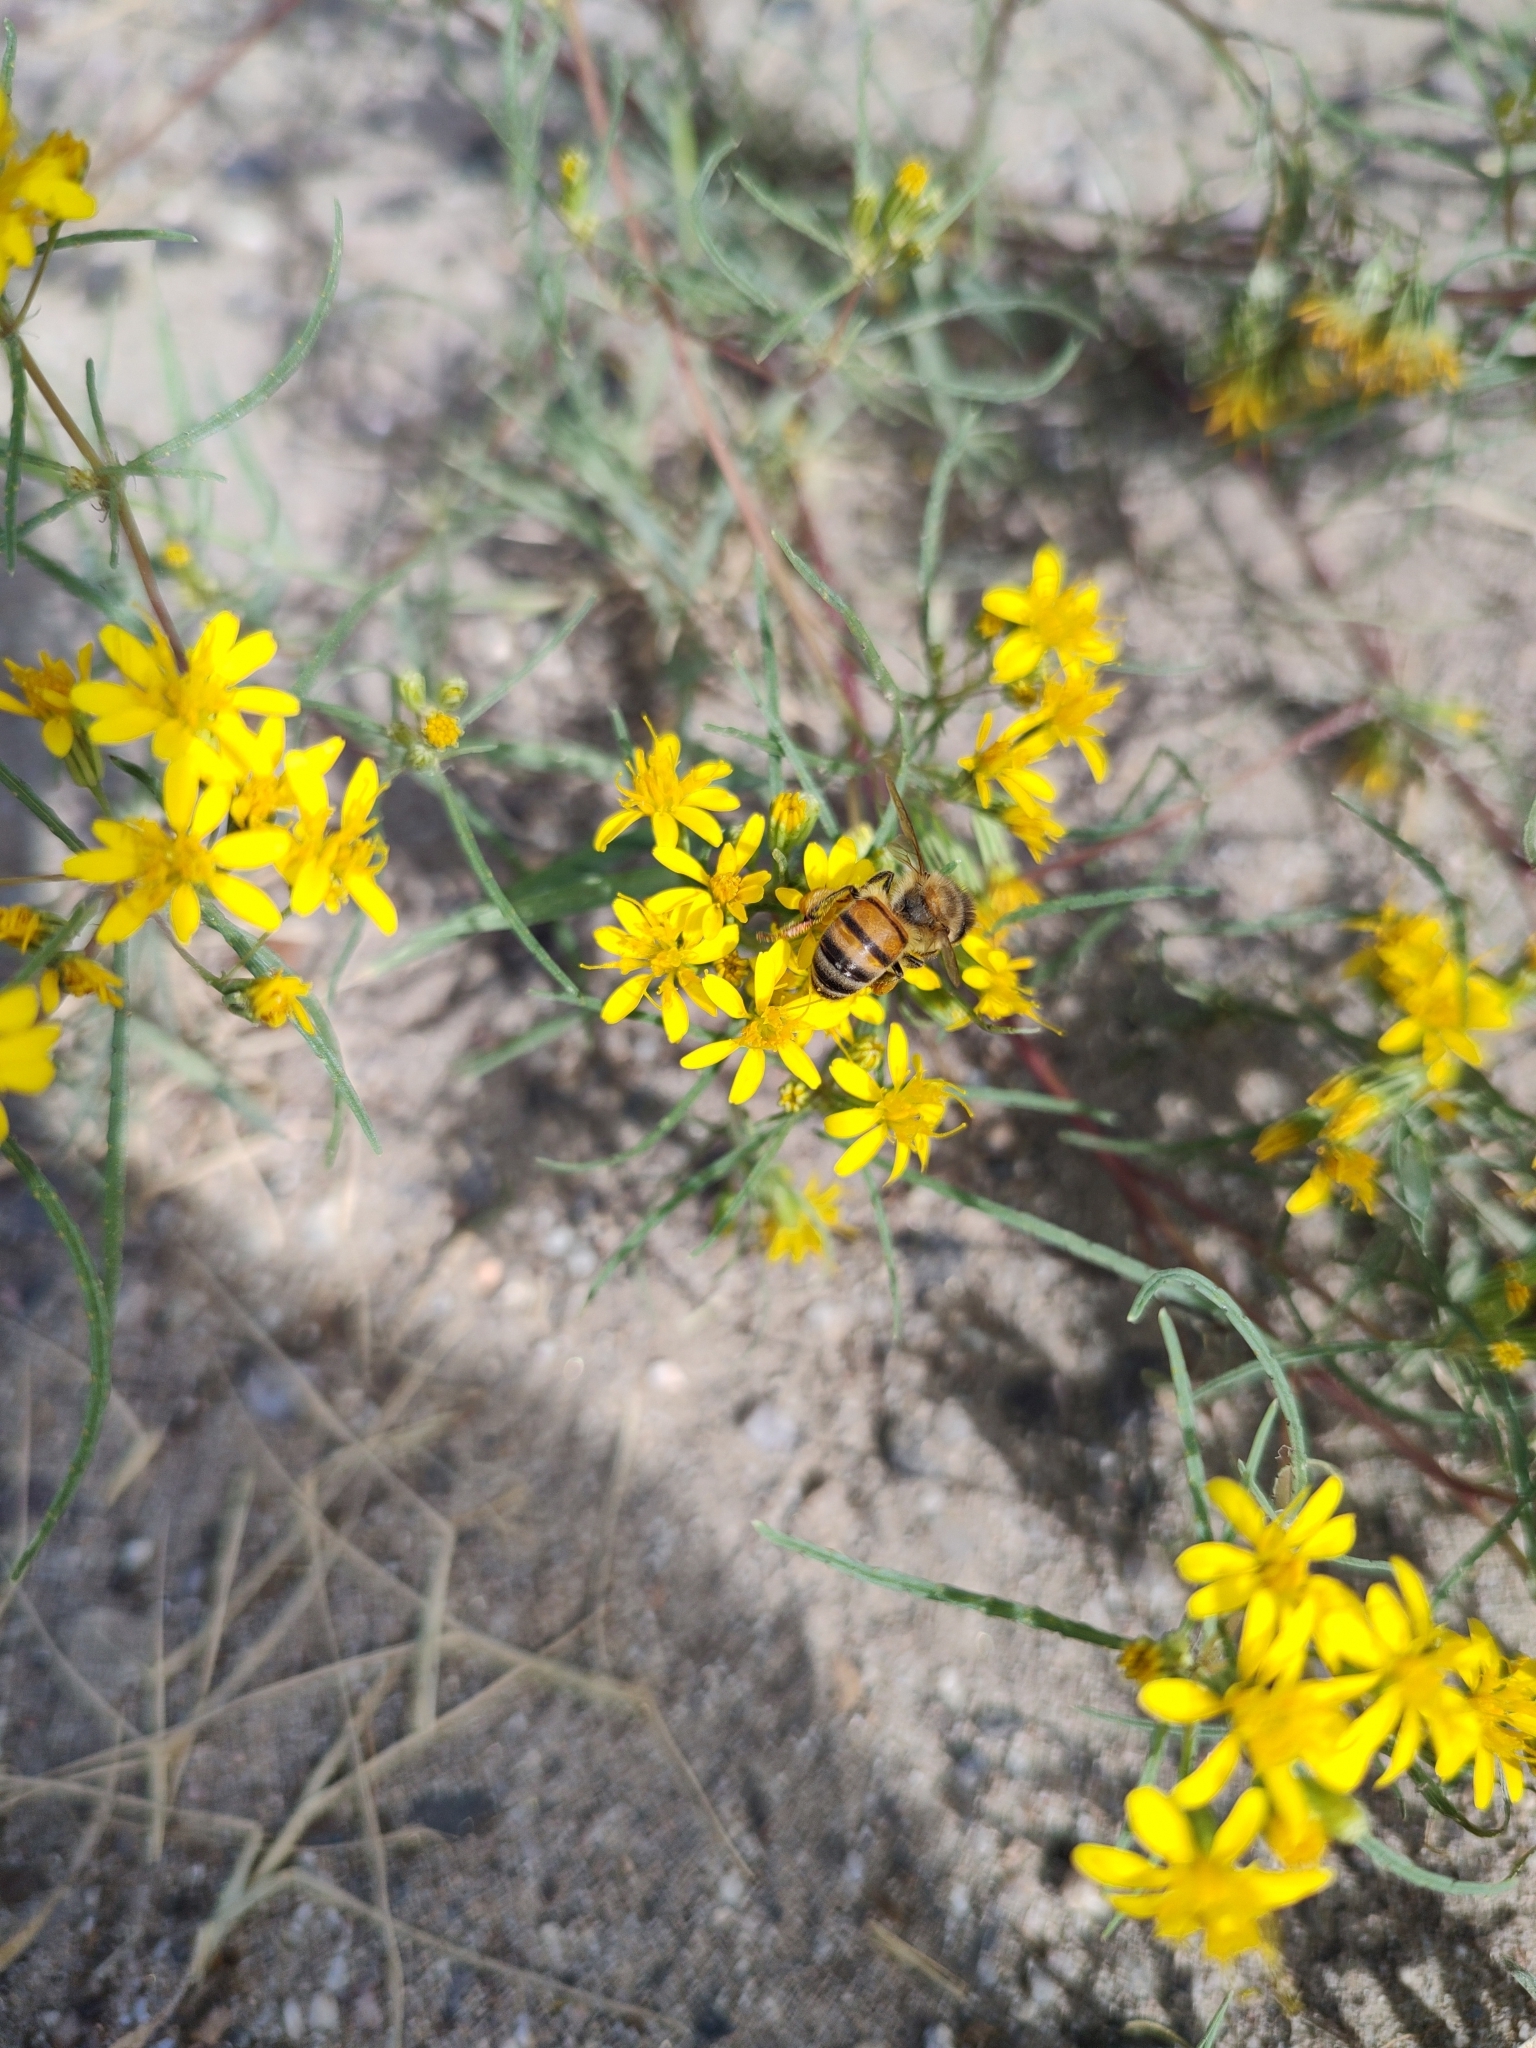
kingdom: Plantae
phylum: Tracheophyta
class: Magnoliopsida
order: Asterales
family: Asteraceae
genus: Pectis
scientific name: Pectis papposa
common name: Many-bristle chinchweed
